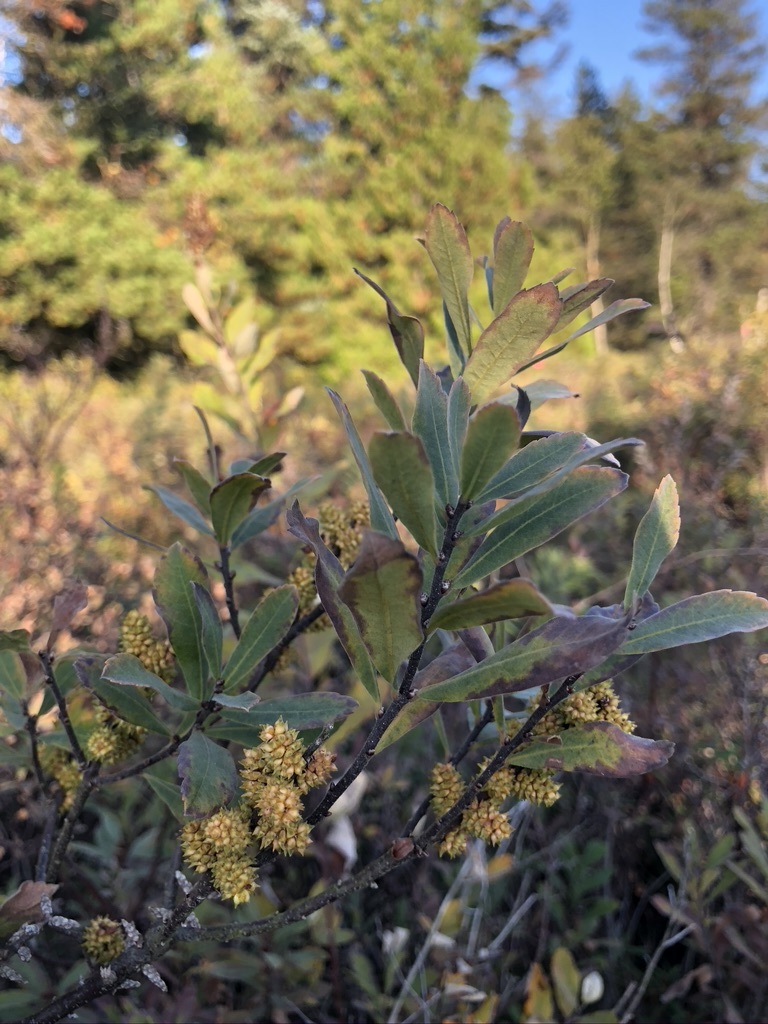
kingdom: Plantae
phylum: Tracheophyta
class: Magnoliopsida
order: Fagales
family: Myricaceae
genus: Myrica
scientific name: Myrica gale
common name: Sweet gale
